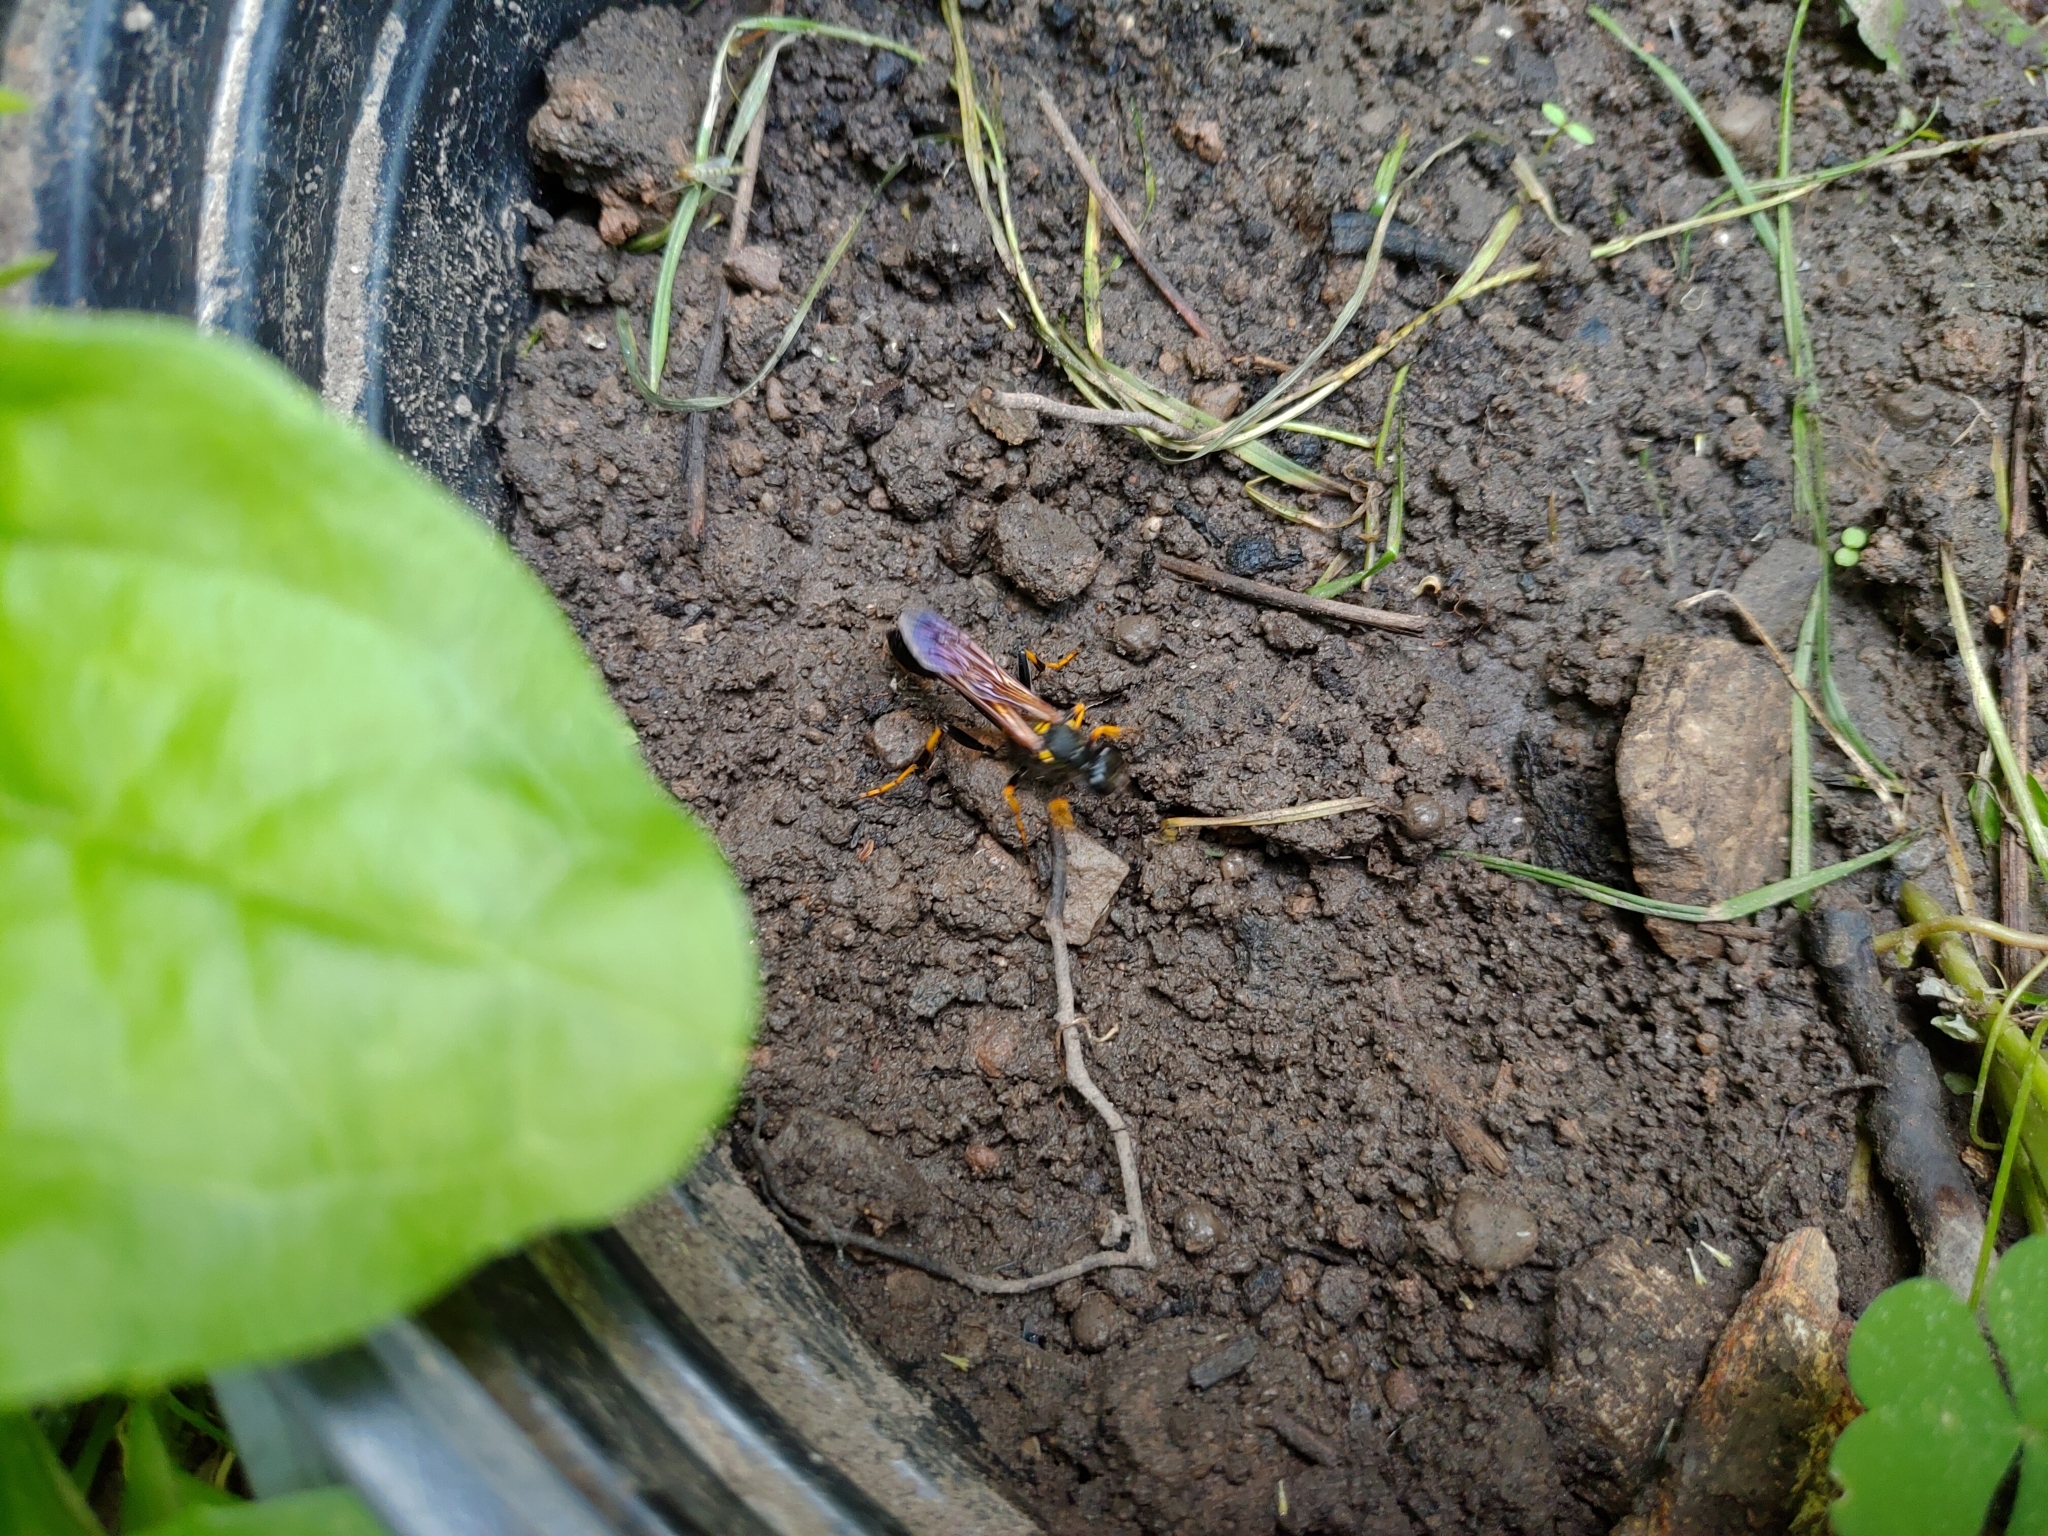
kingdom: Animalia
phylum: Arthropoda
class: Insecta
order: Hymenoptera
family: Sphecidae
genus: Sceliphron
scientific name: Sceliphron caementarium
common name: Mud dauber
